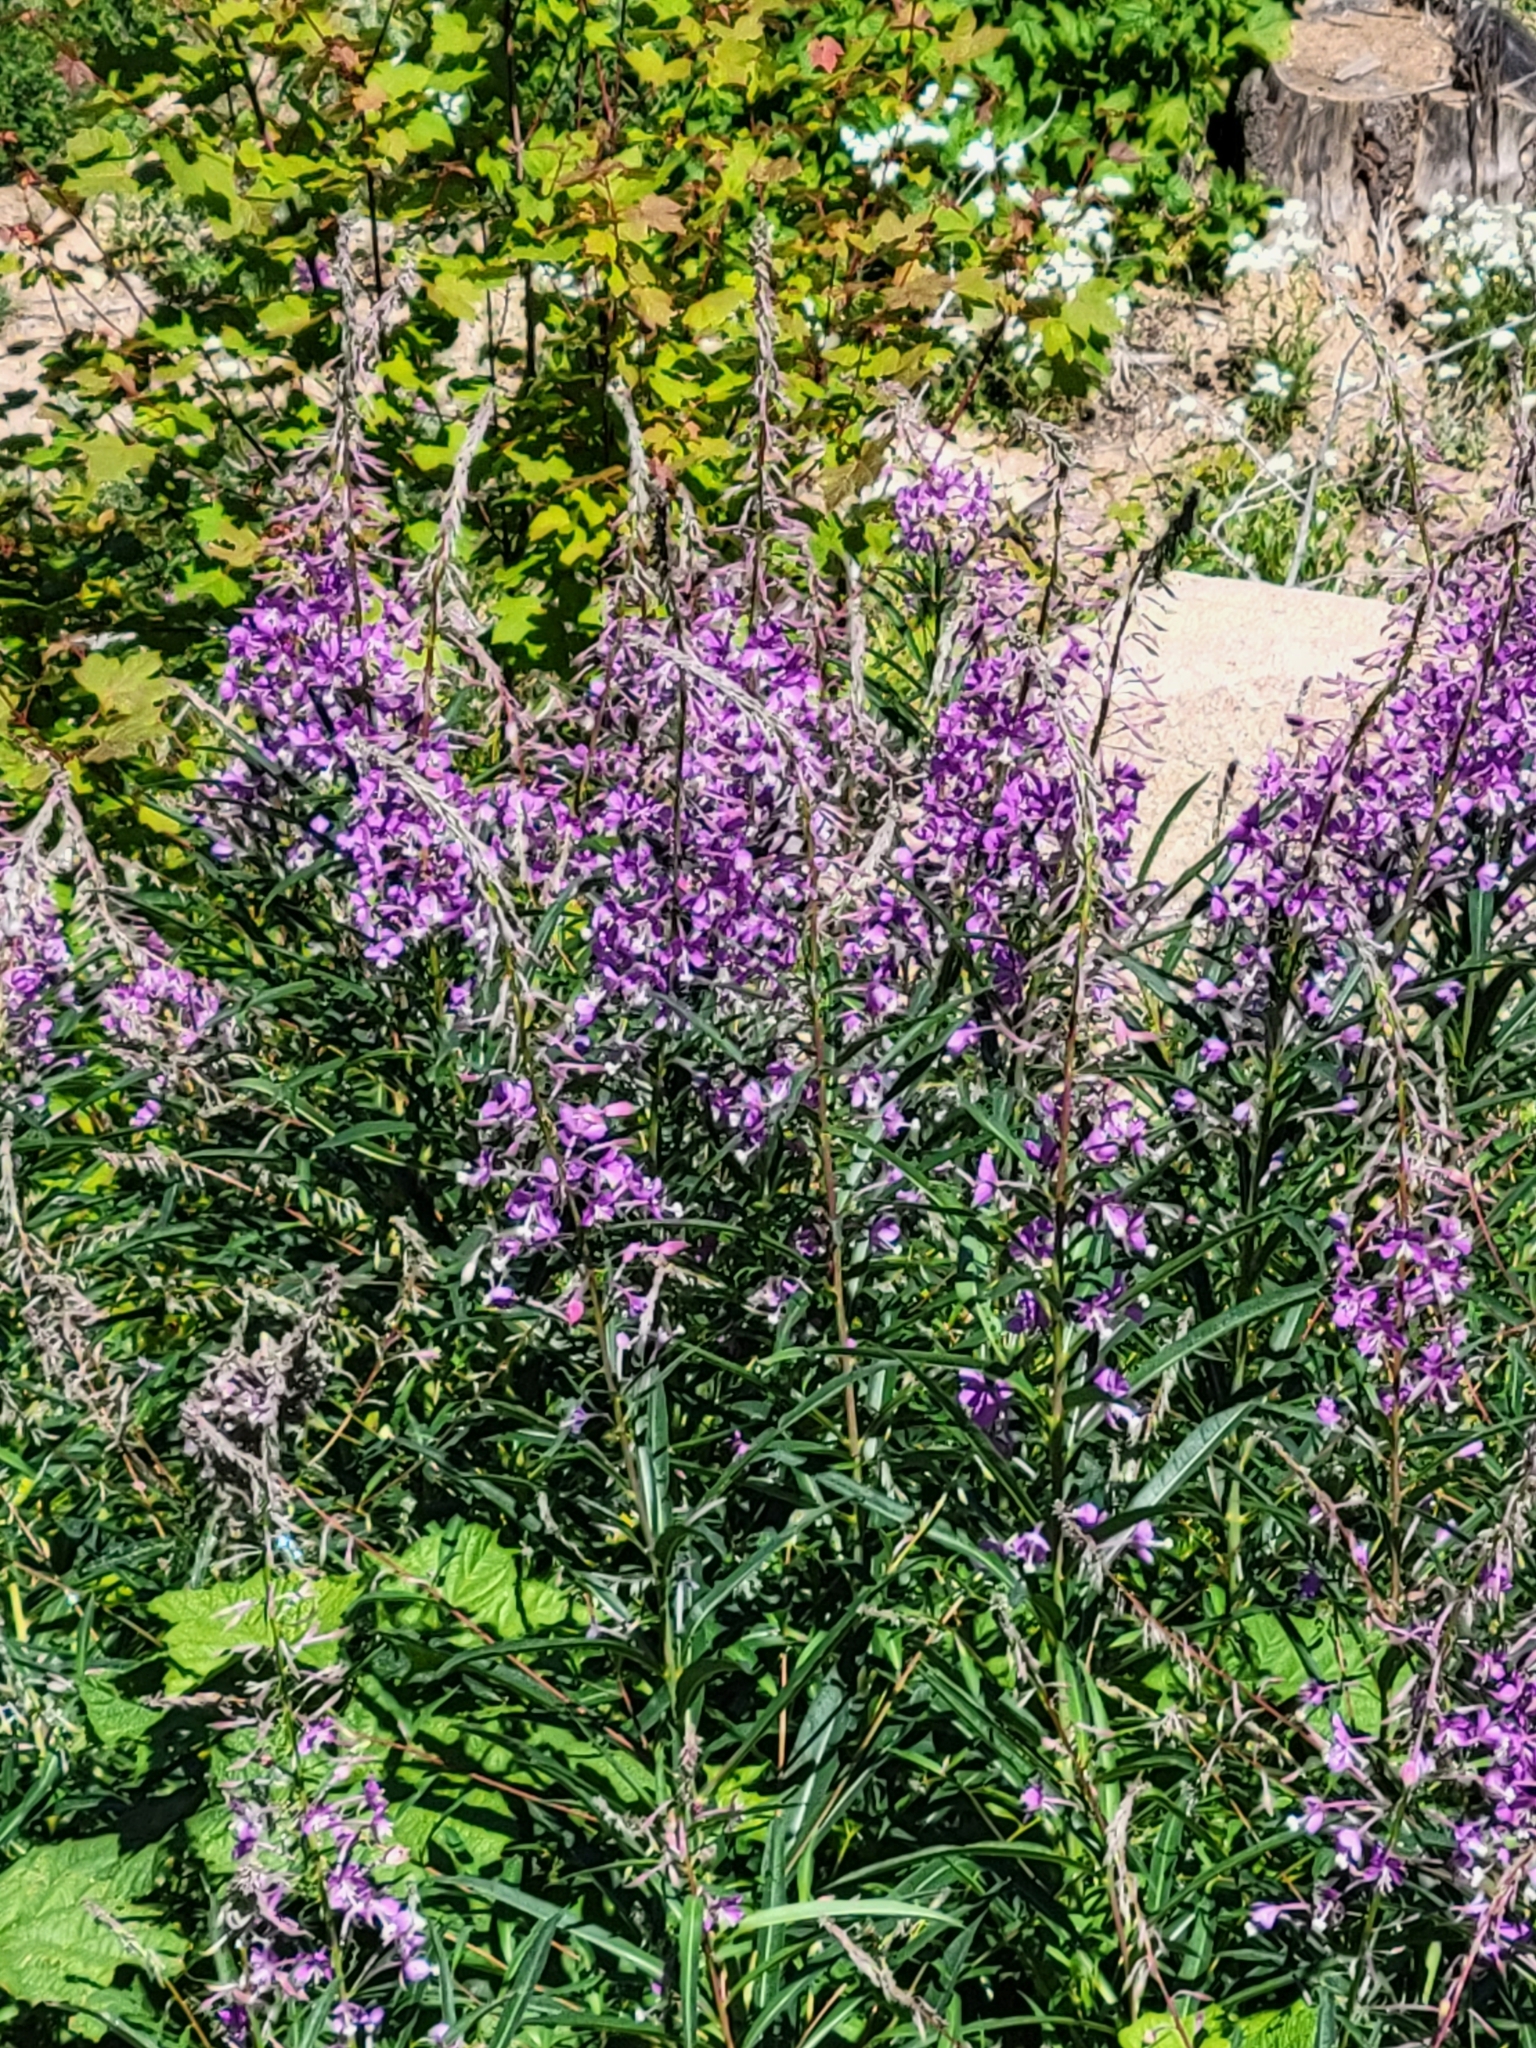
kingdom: Plantae
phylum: Tracheophyta
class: Magnoliopsida
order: Myrtales
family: Onagraceae
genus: Chamaenerion
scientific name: Chamaenerion angustifolium
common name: Fireweed
